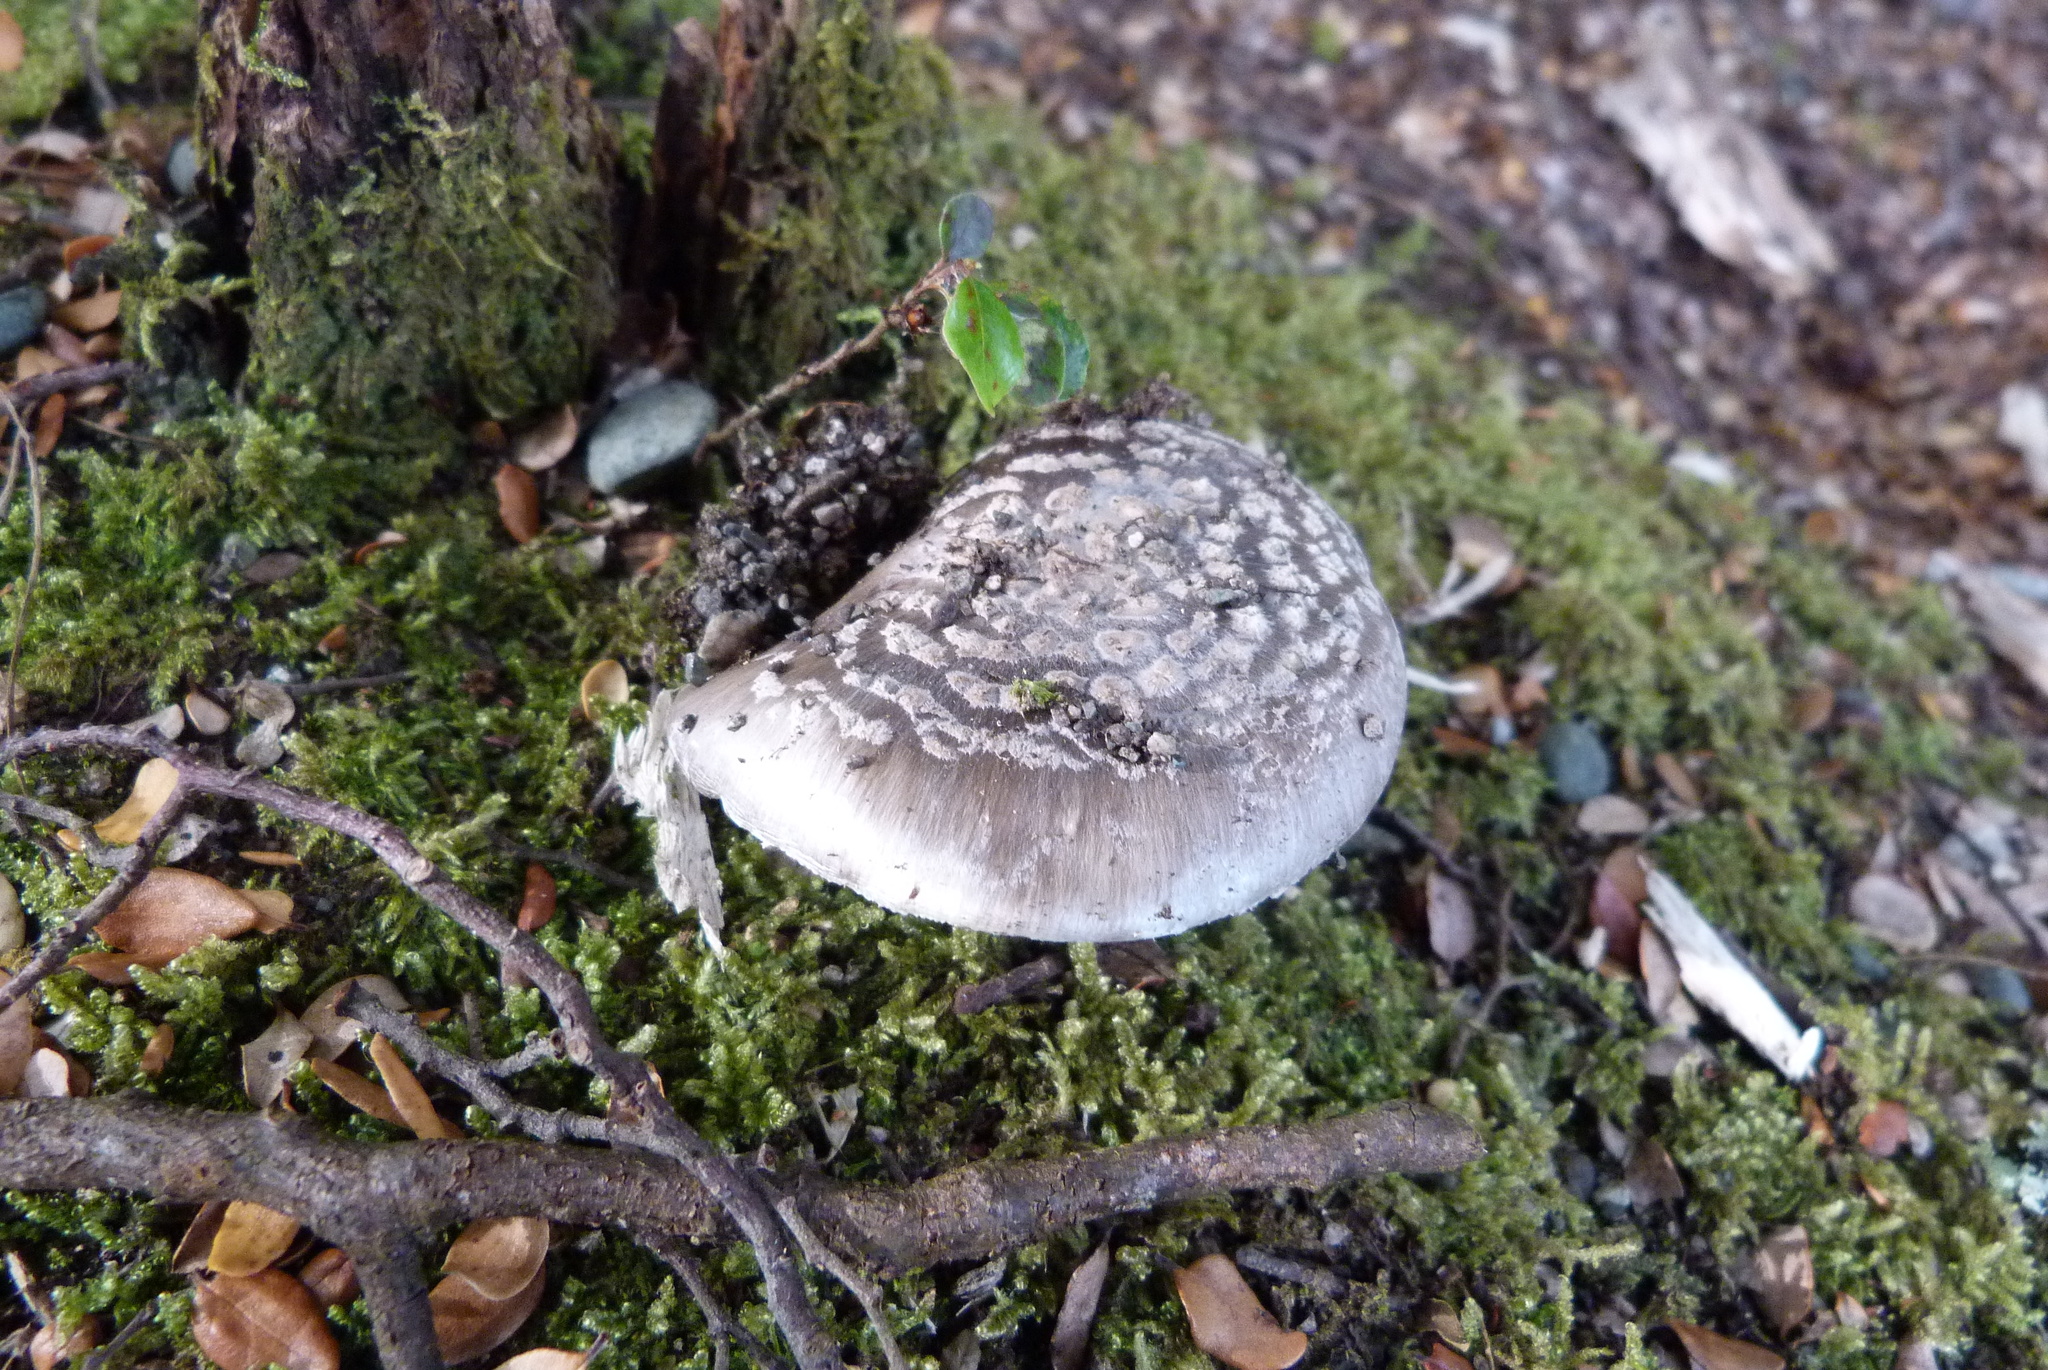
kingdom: Fungi
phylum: Basidiomycota
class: Agaricomycetes
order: Agaricales
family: Amanitaceae
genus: Amanita
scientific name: Amanita nothofagi
